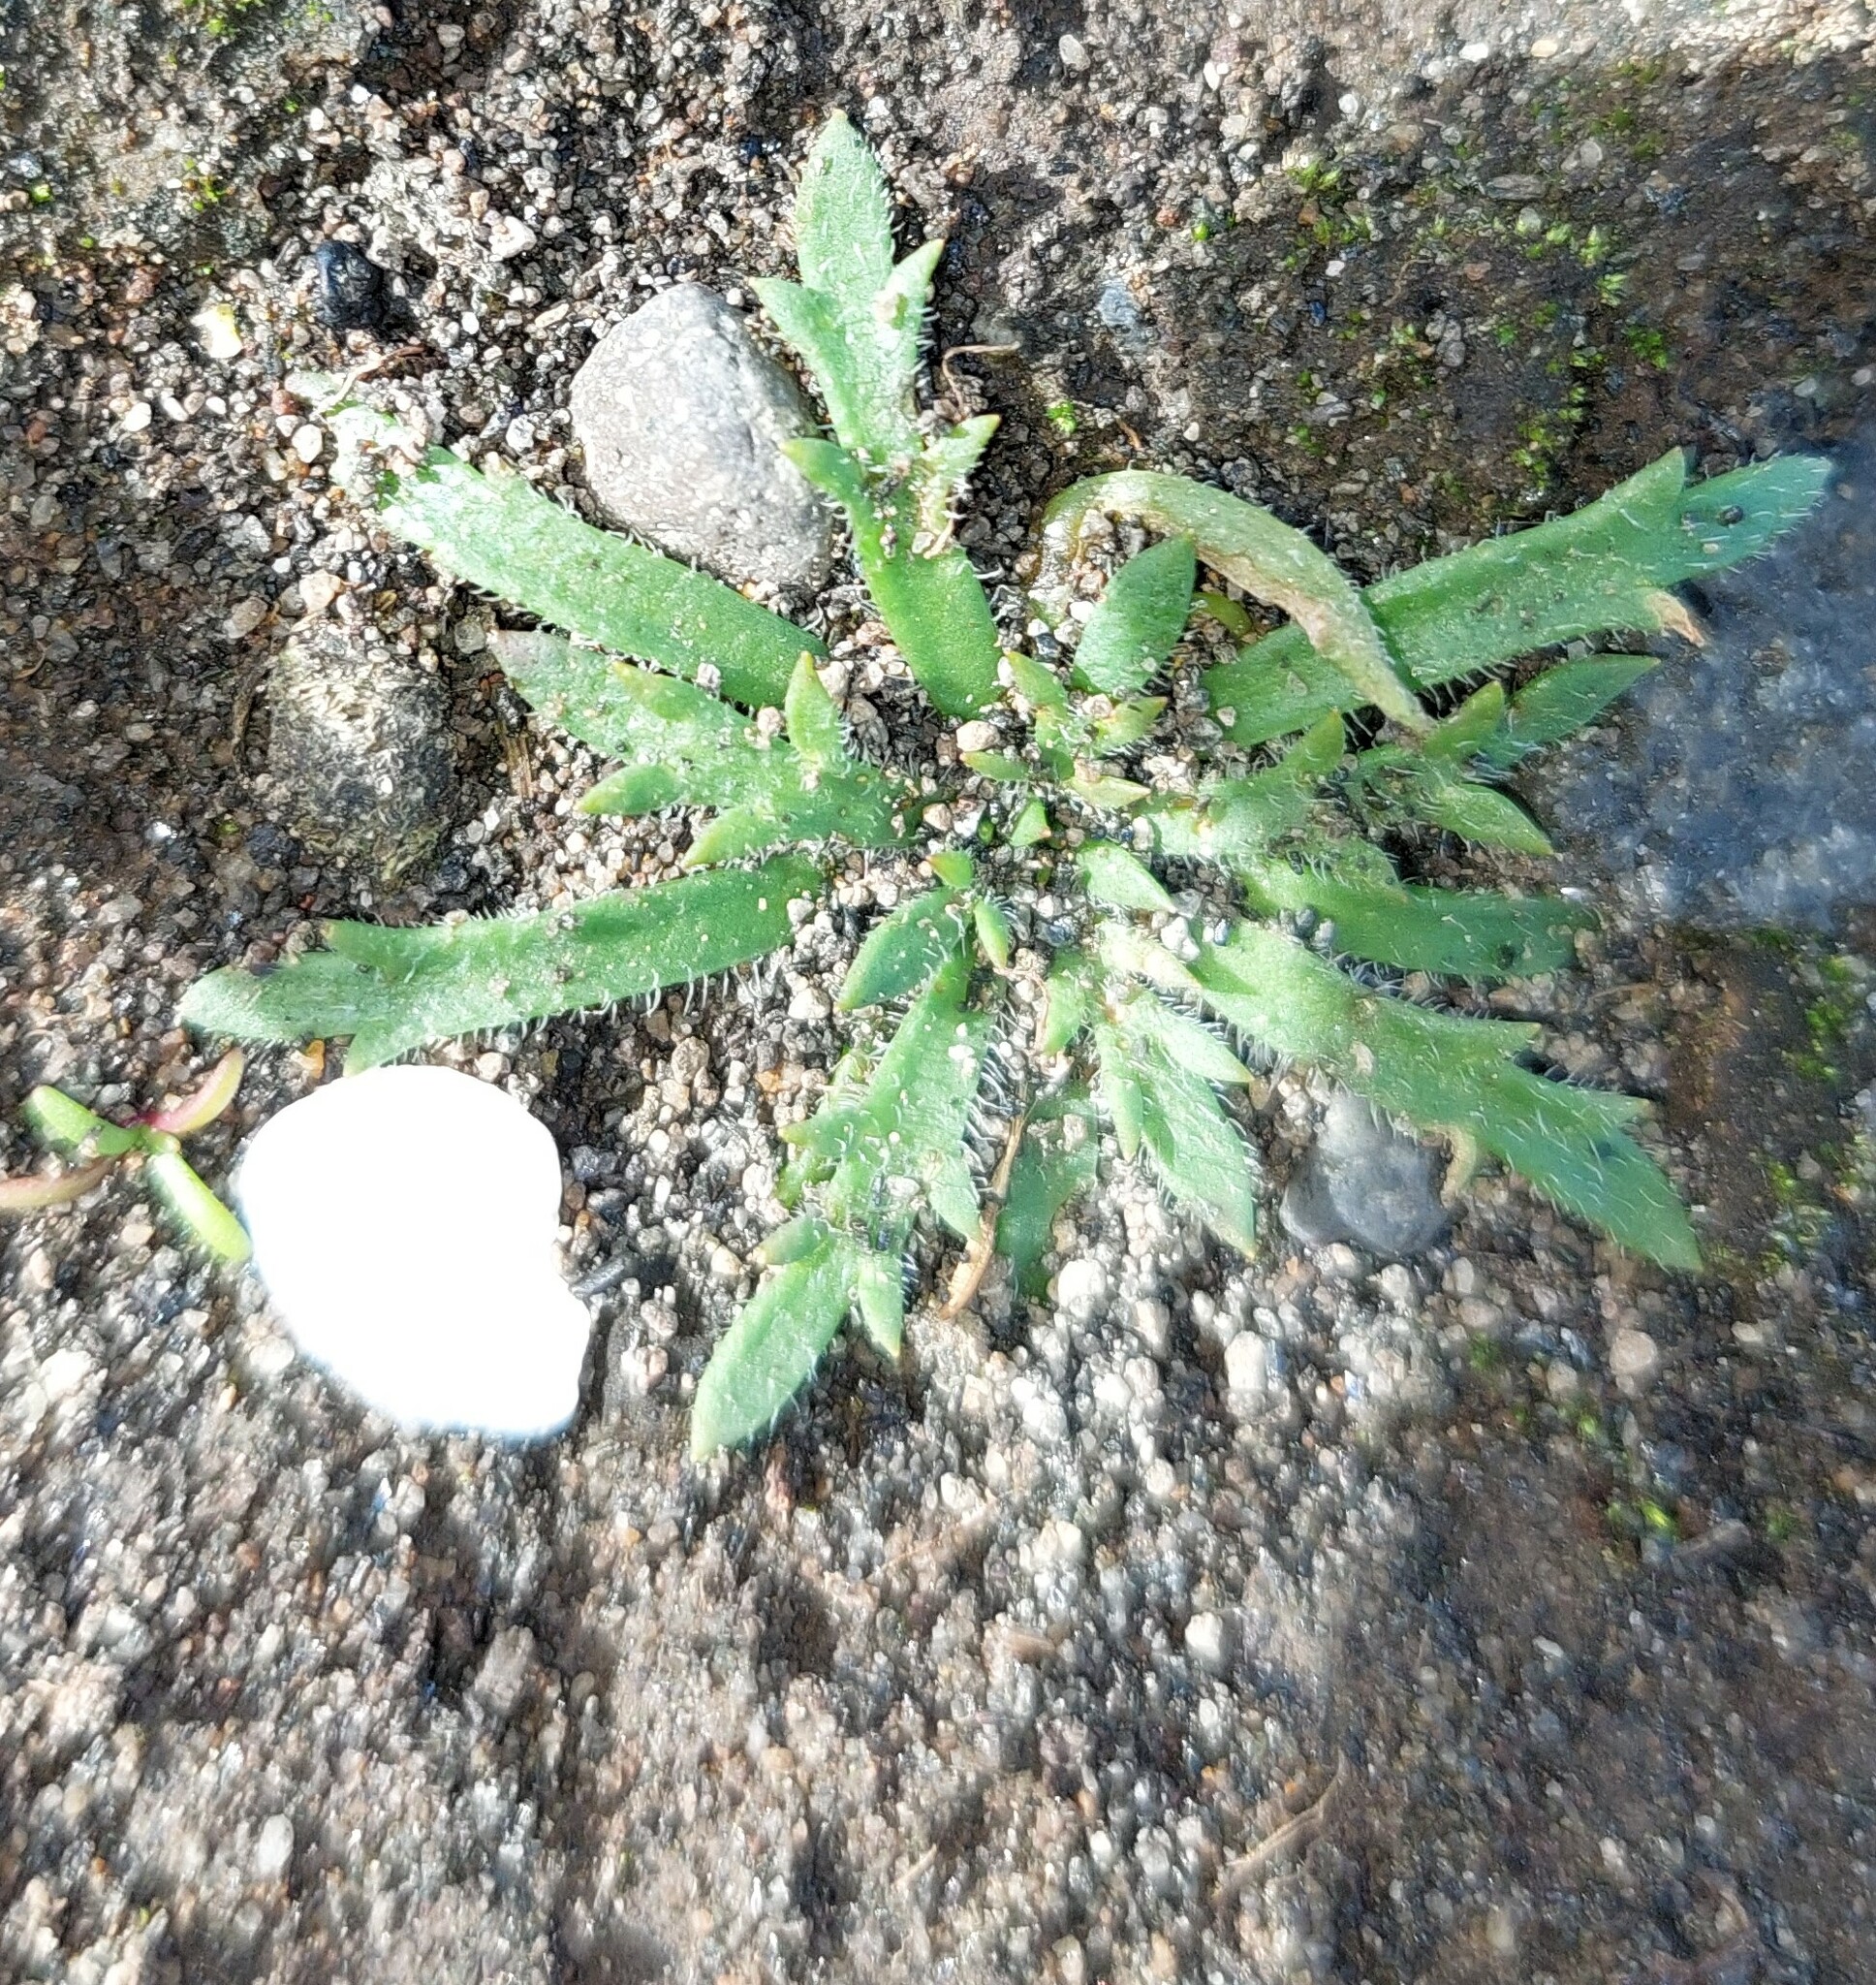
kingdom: Plantae
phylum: Tracheophyta
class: Magnoliopsida
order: Lamiales
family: Plantaginaceae
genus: Plantago
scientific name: Plantago coronopus
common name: Buck's-horn plantain
